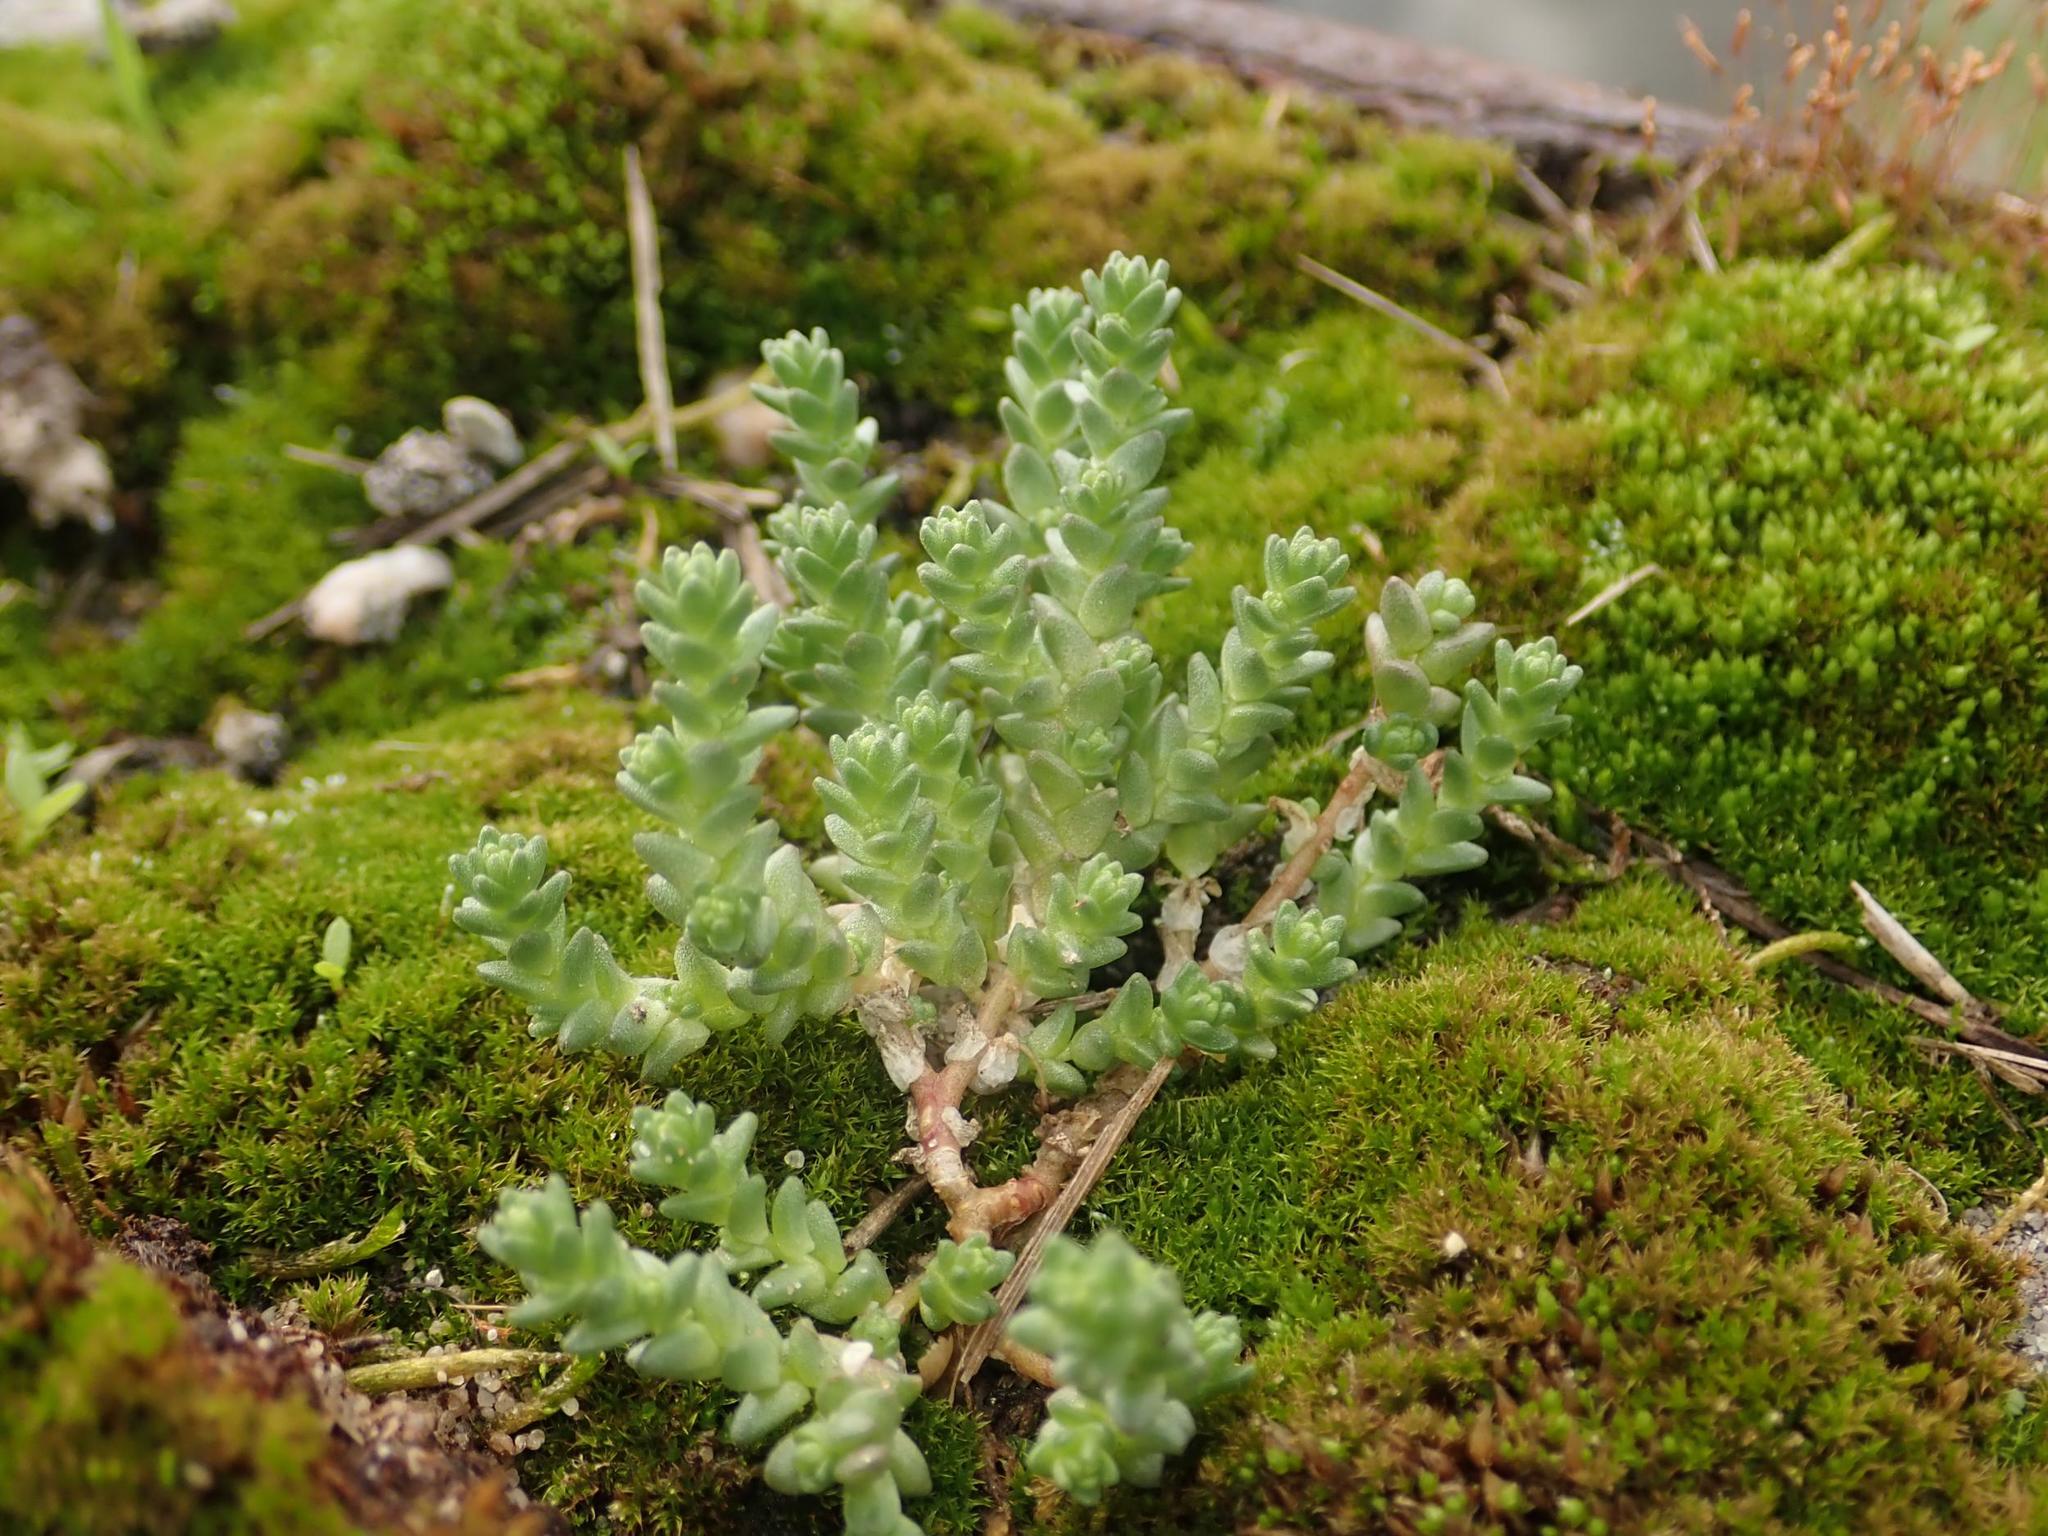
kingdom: Plantae
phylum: Tracheophyta
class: Magnoliopsida
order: Saxifragales
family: Crassulaceae
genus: Sedum
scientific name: Sedum acre
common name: Biting stonecrop
